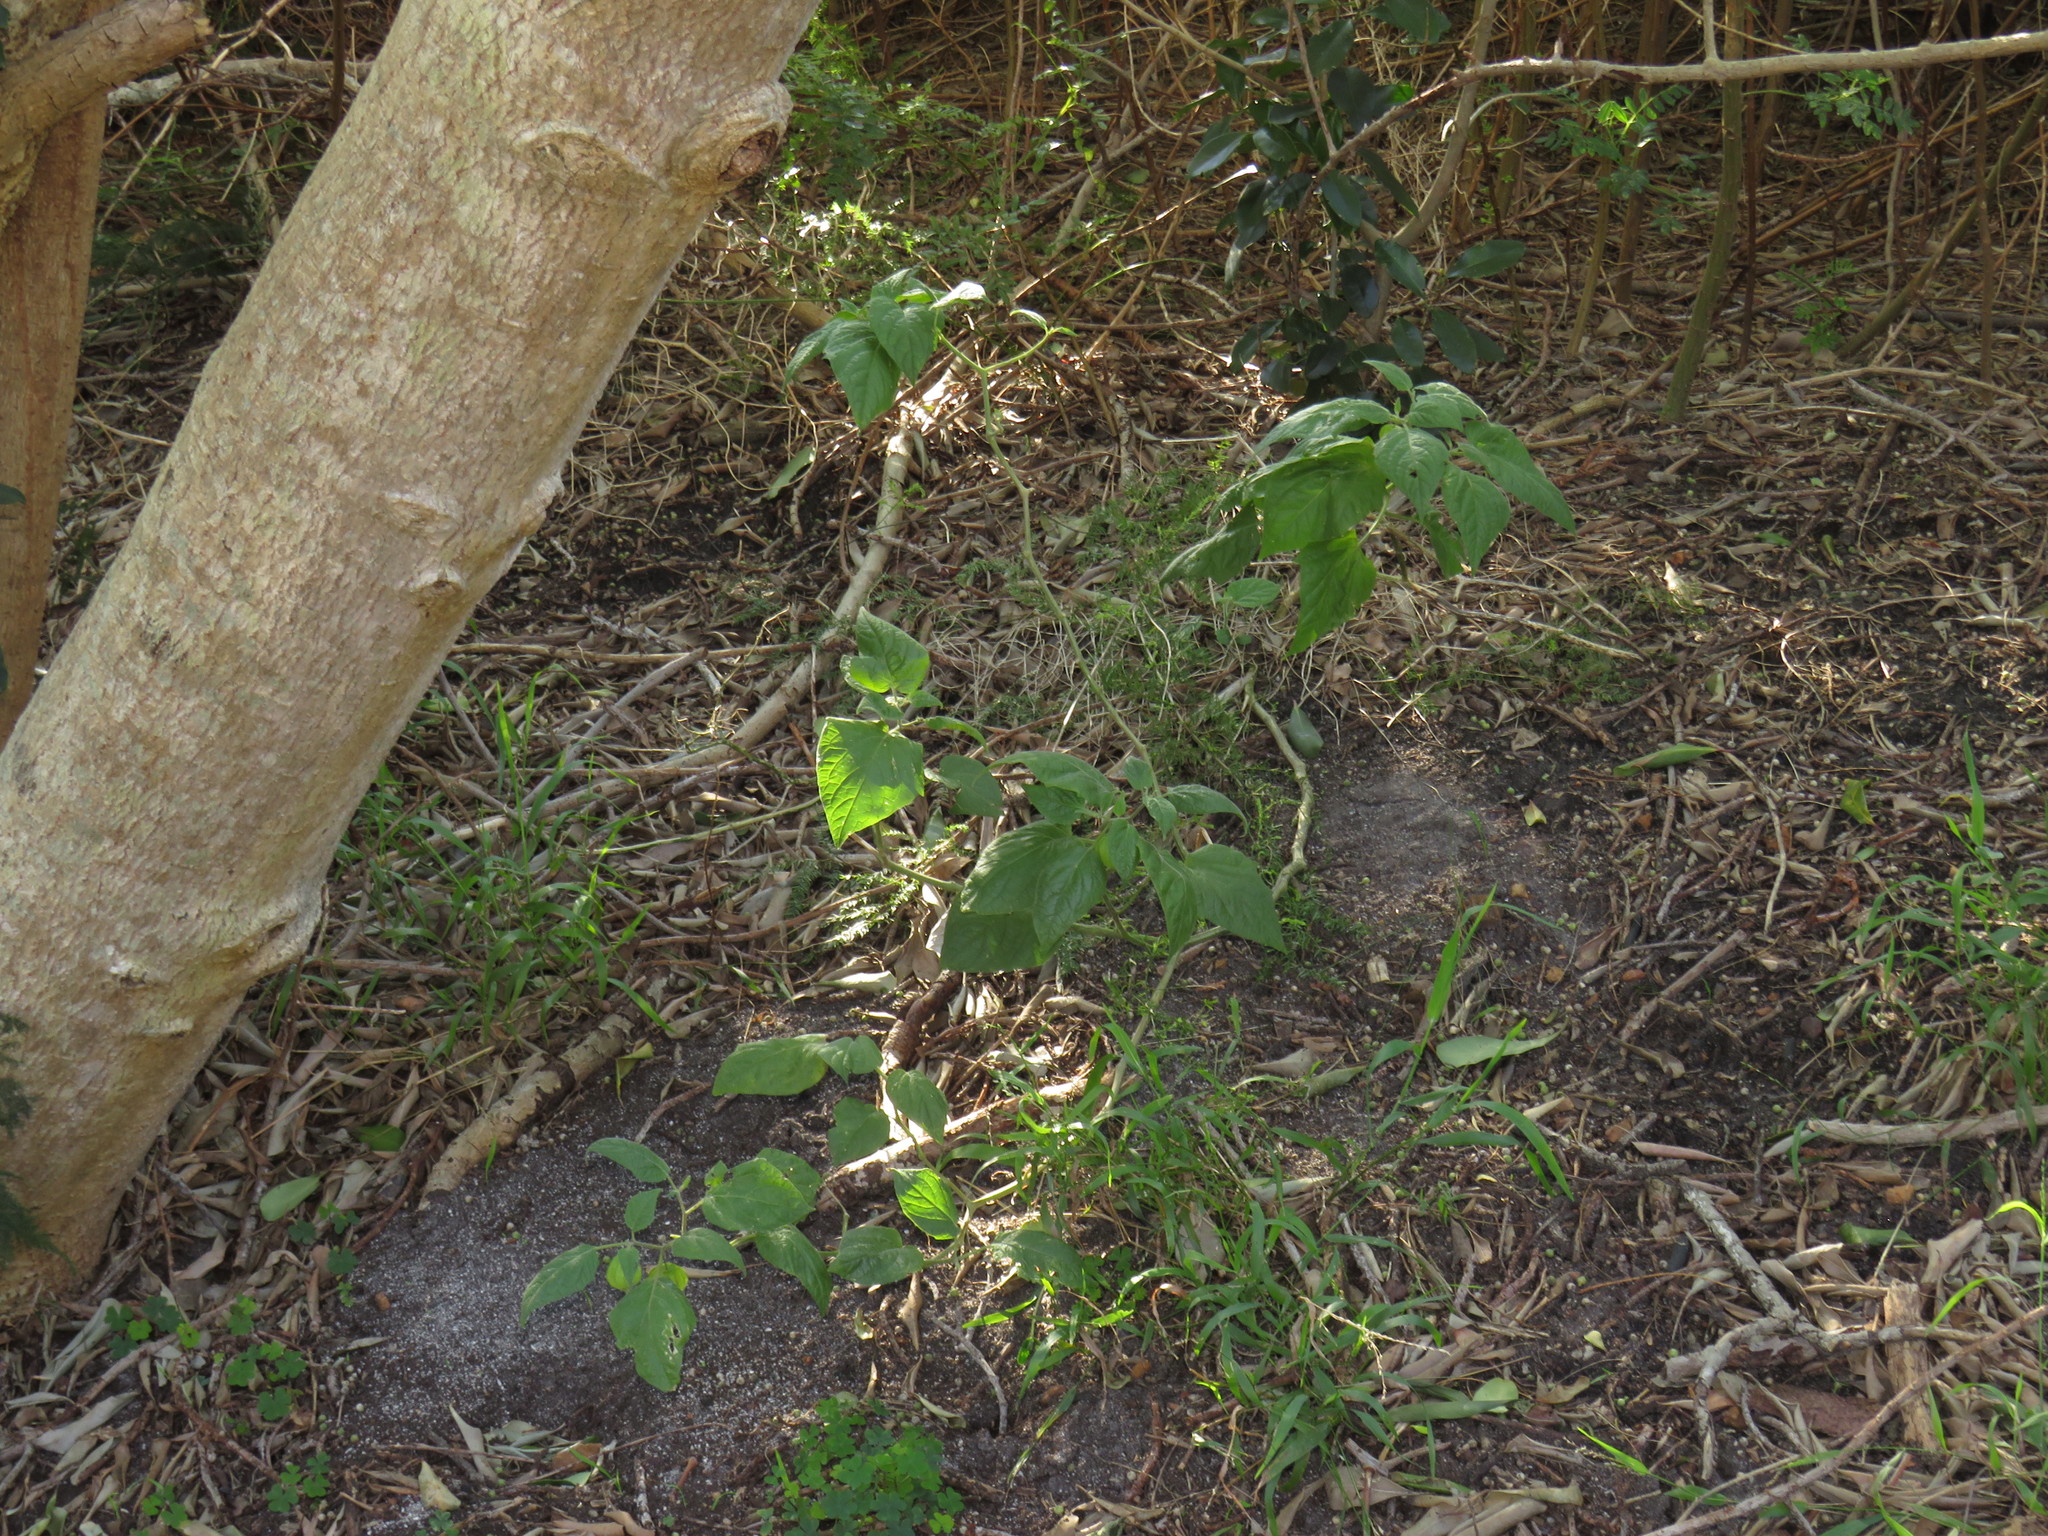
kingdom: Plantae
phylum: Tracheophyta
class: Magnoliopsida
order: Solanales
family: Solanaceae
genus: Physalis
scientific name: Physalis peruviana
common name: Cape-gooseberry
